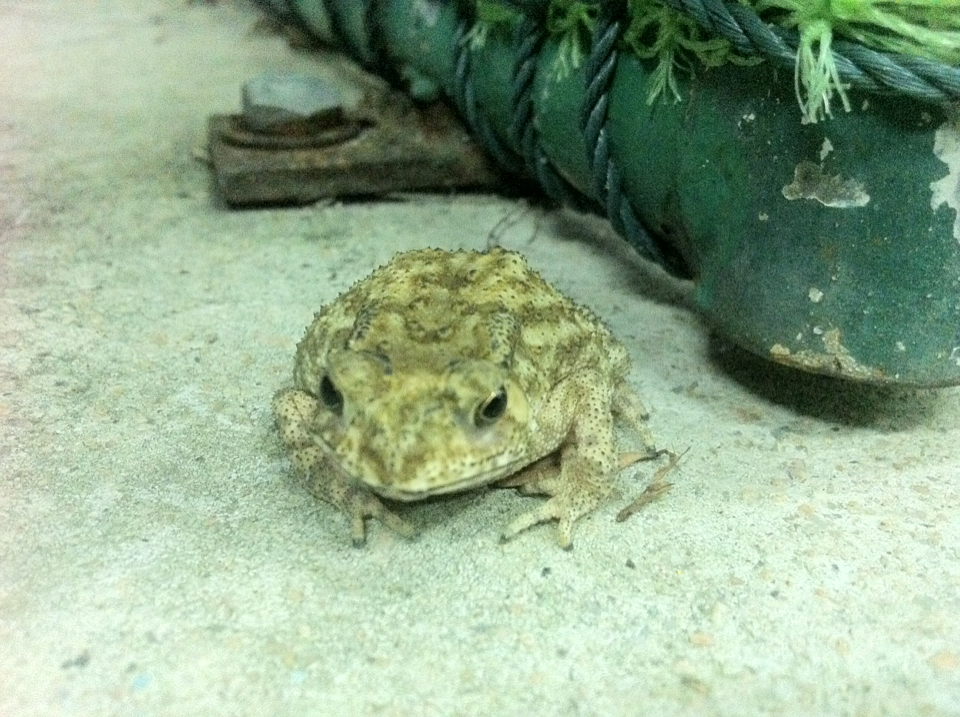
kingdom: Animalia
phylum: Chordata
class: Amphibia
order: Anura
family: Bufonidae
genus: Duttaphrynus
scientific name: Duttaphrynus melanostictus
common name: Common sunda toad
